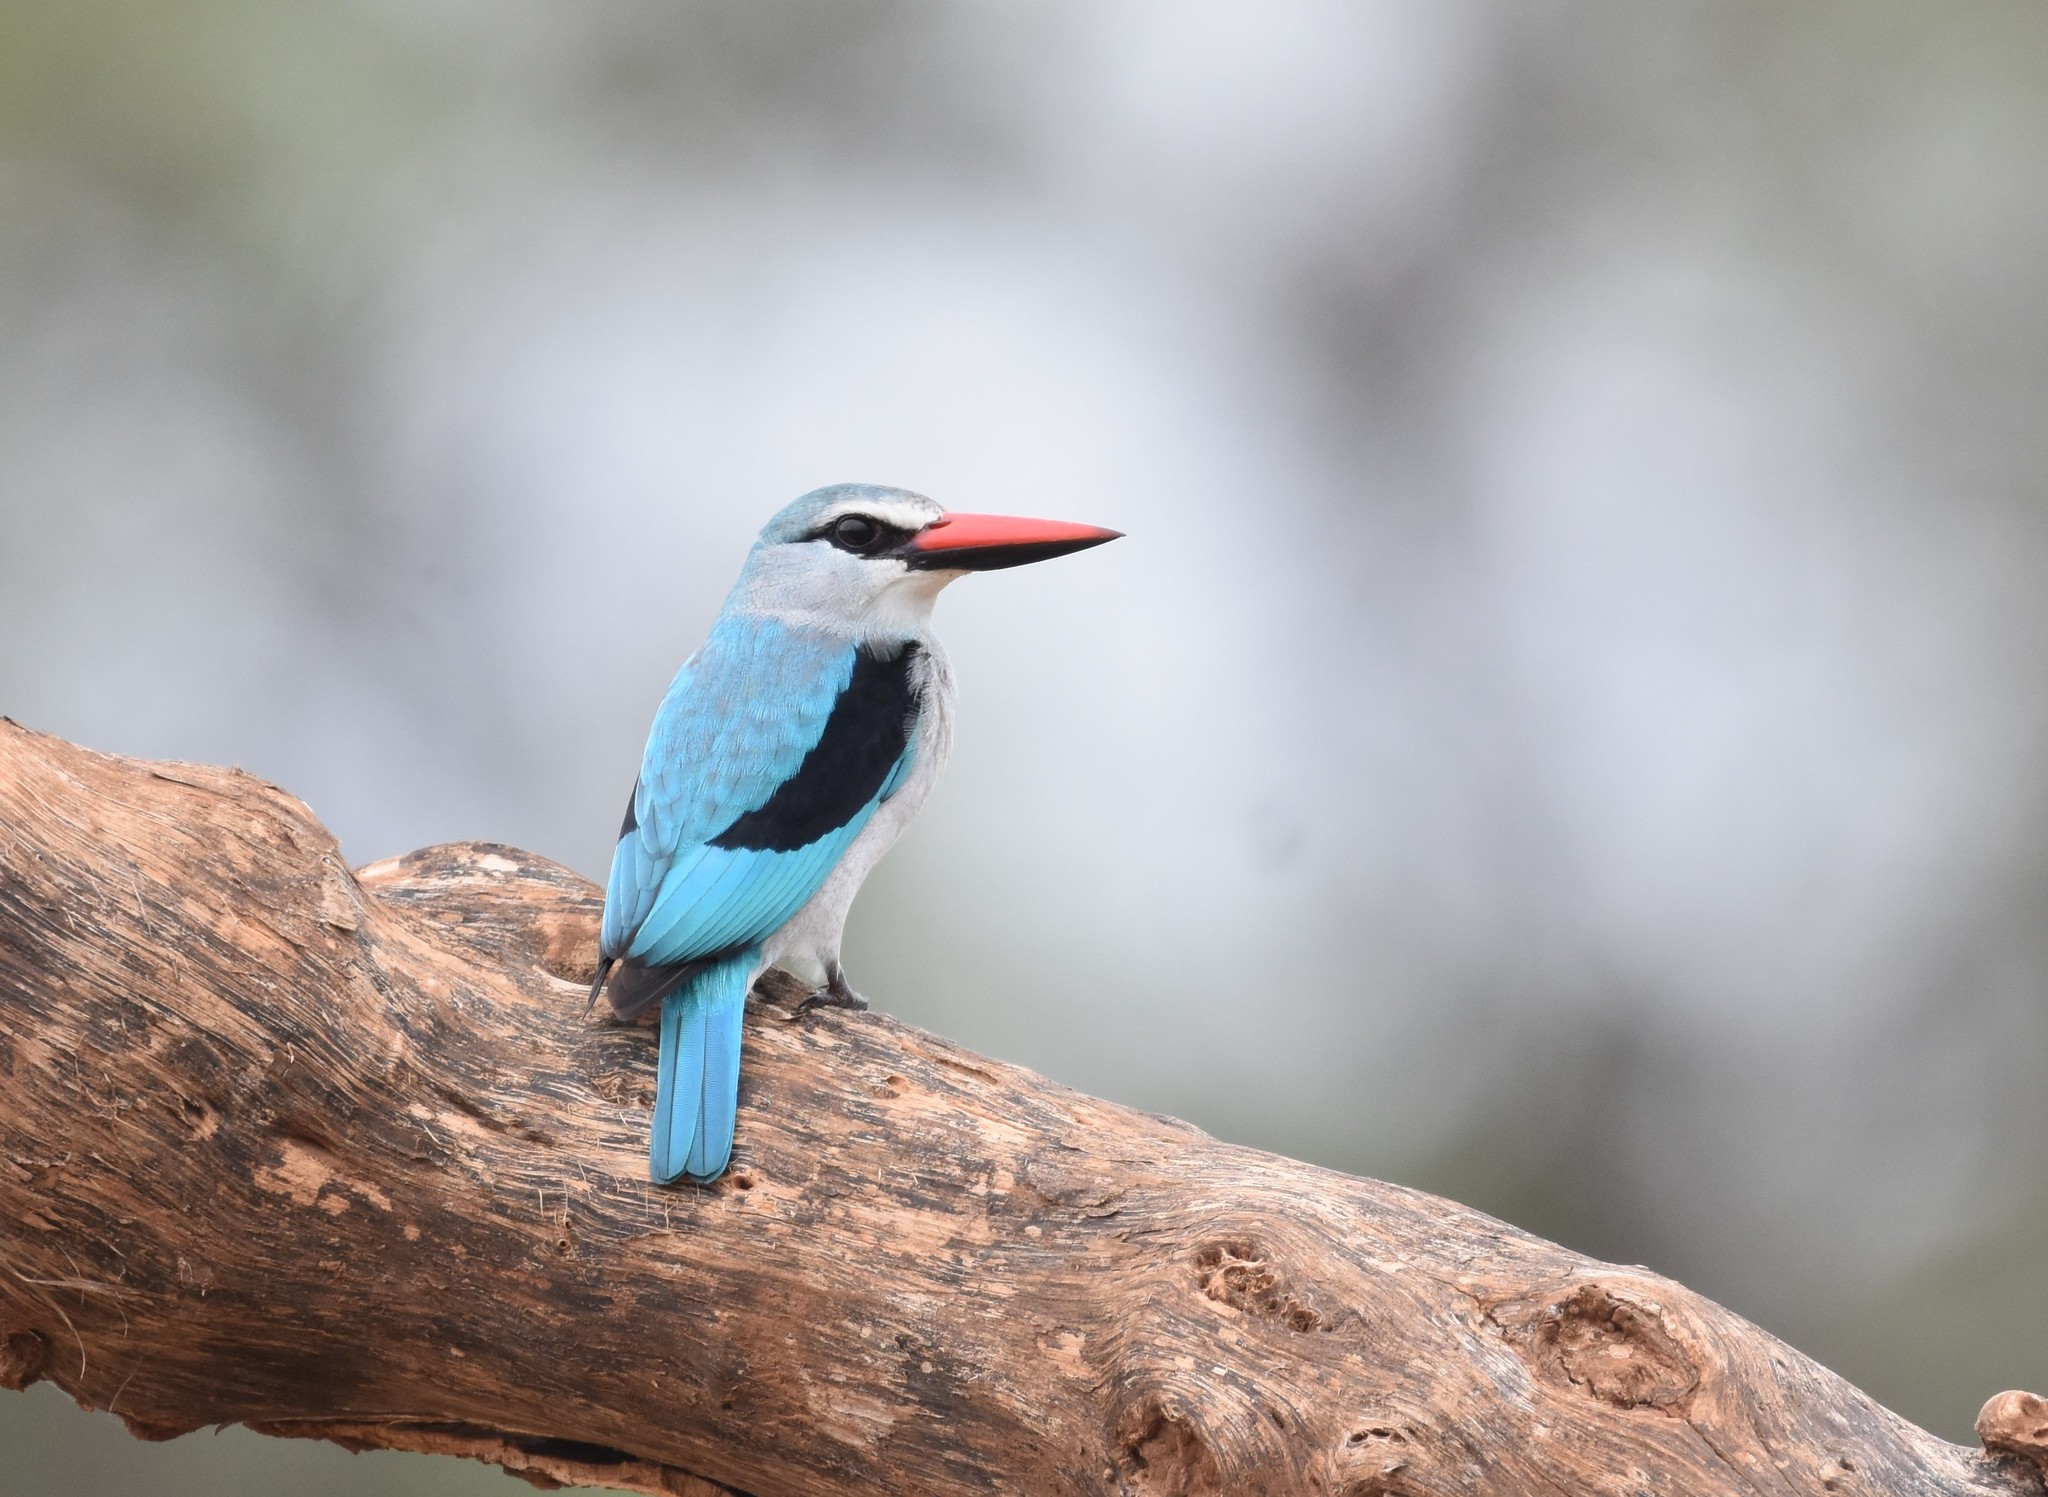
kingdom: Animalia
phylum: Chordata
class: Aves
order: Coraciiformes
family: Alcedinidae
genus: Halcyon
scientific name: Halcyon senegalensis
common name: Woodland kingfisher
